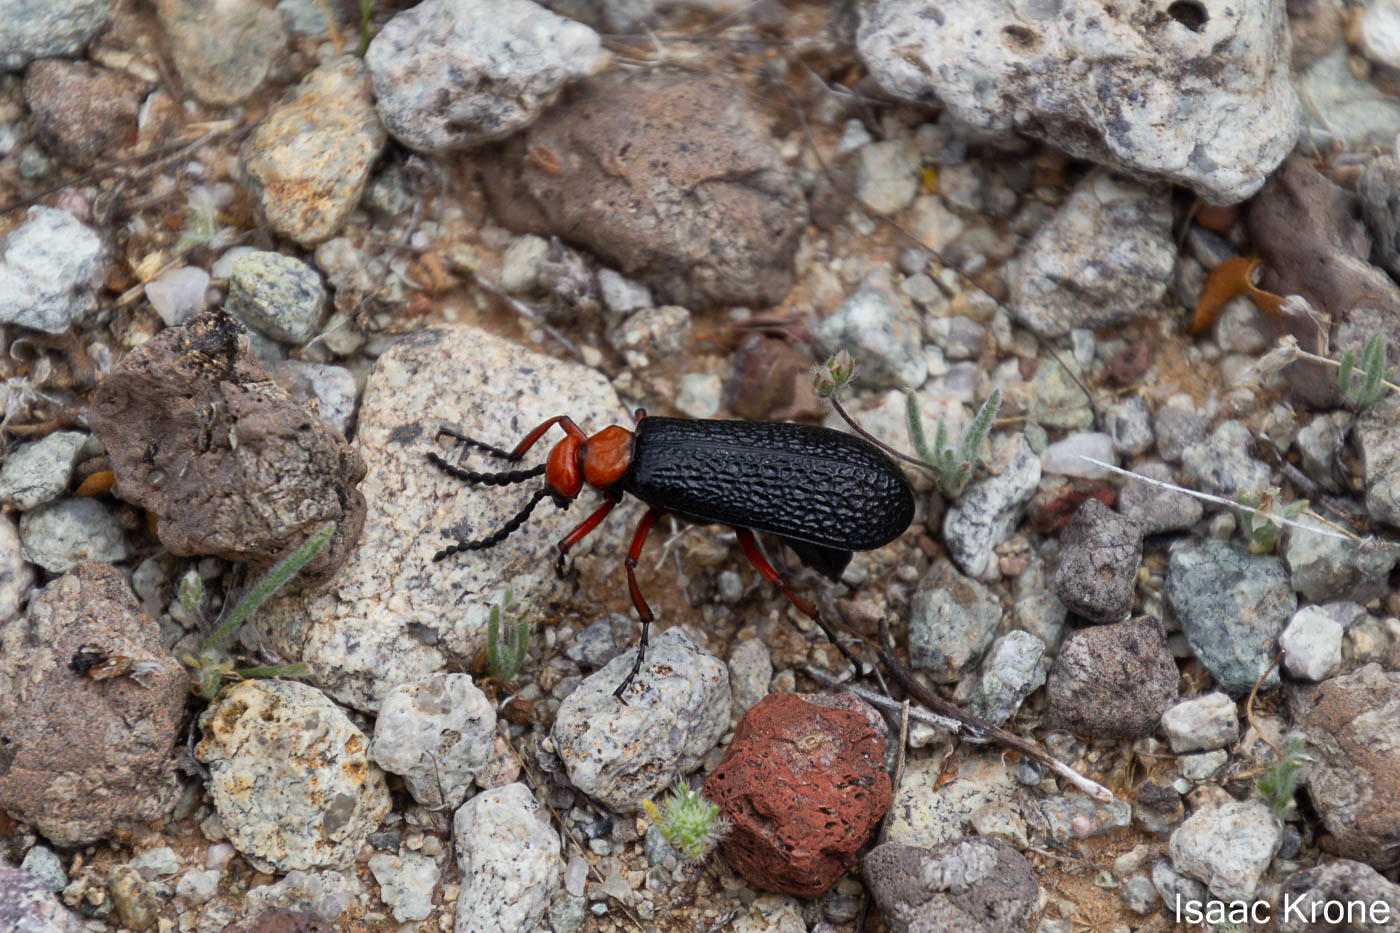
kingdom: Animalia
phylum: Arthropoda
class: Insecta
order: Coleoptera
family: Meloidae
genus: Lytta
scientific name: Lytta magister
